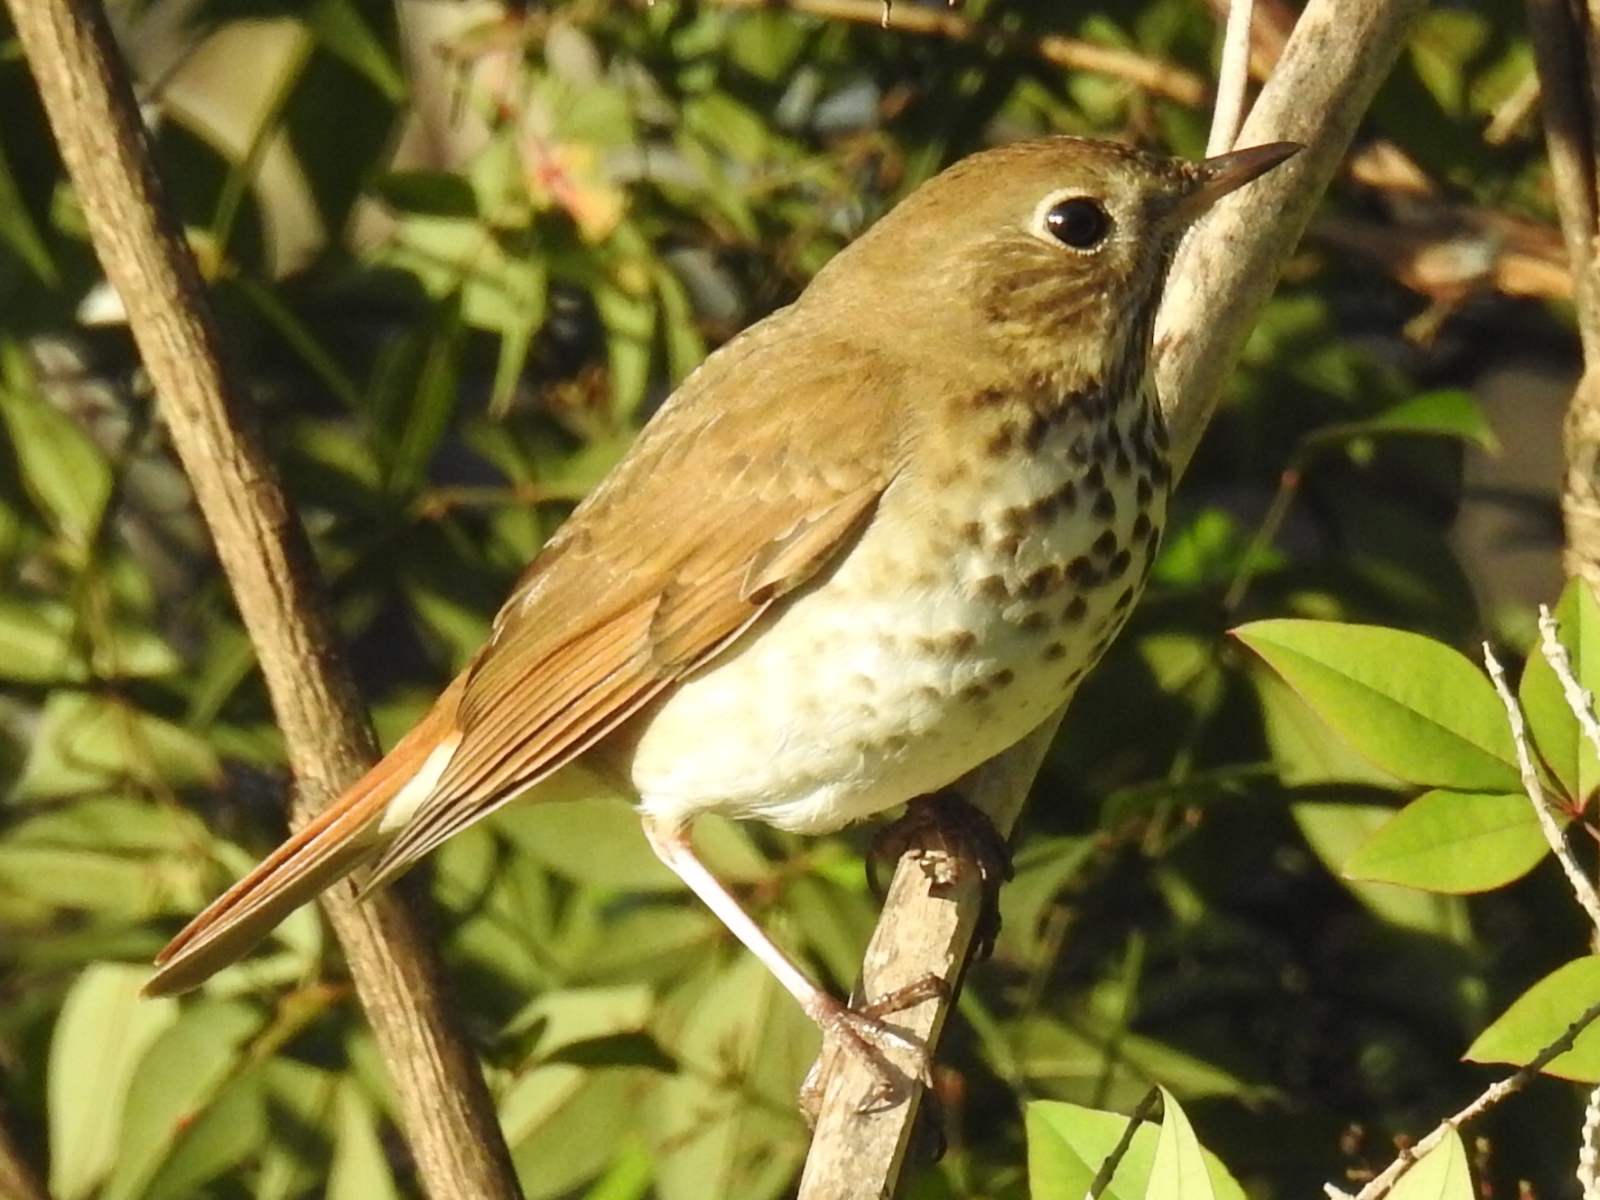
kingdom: Animalia
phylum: Chordata
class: Aves
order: Passeriformes
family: Turdidae
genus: Catharus
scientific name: Catharus guttatus
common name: Hermit thrush
